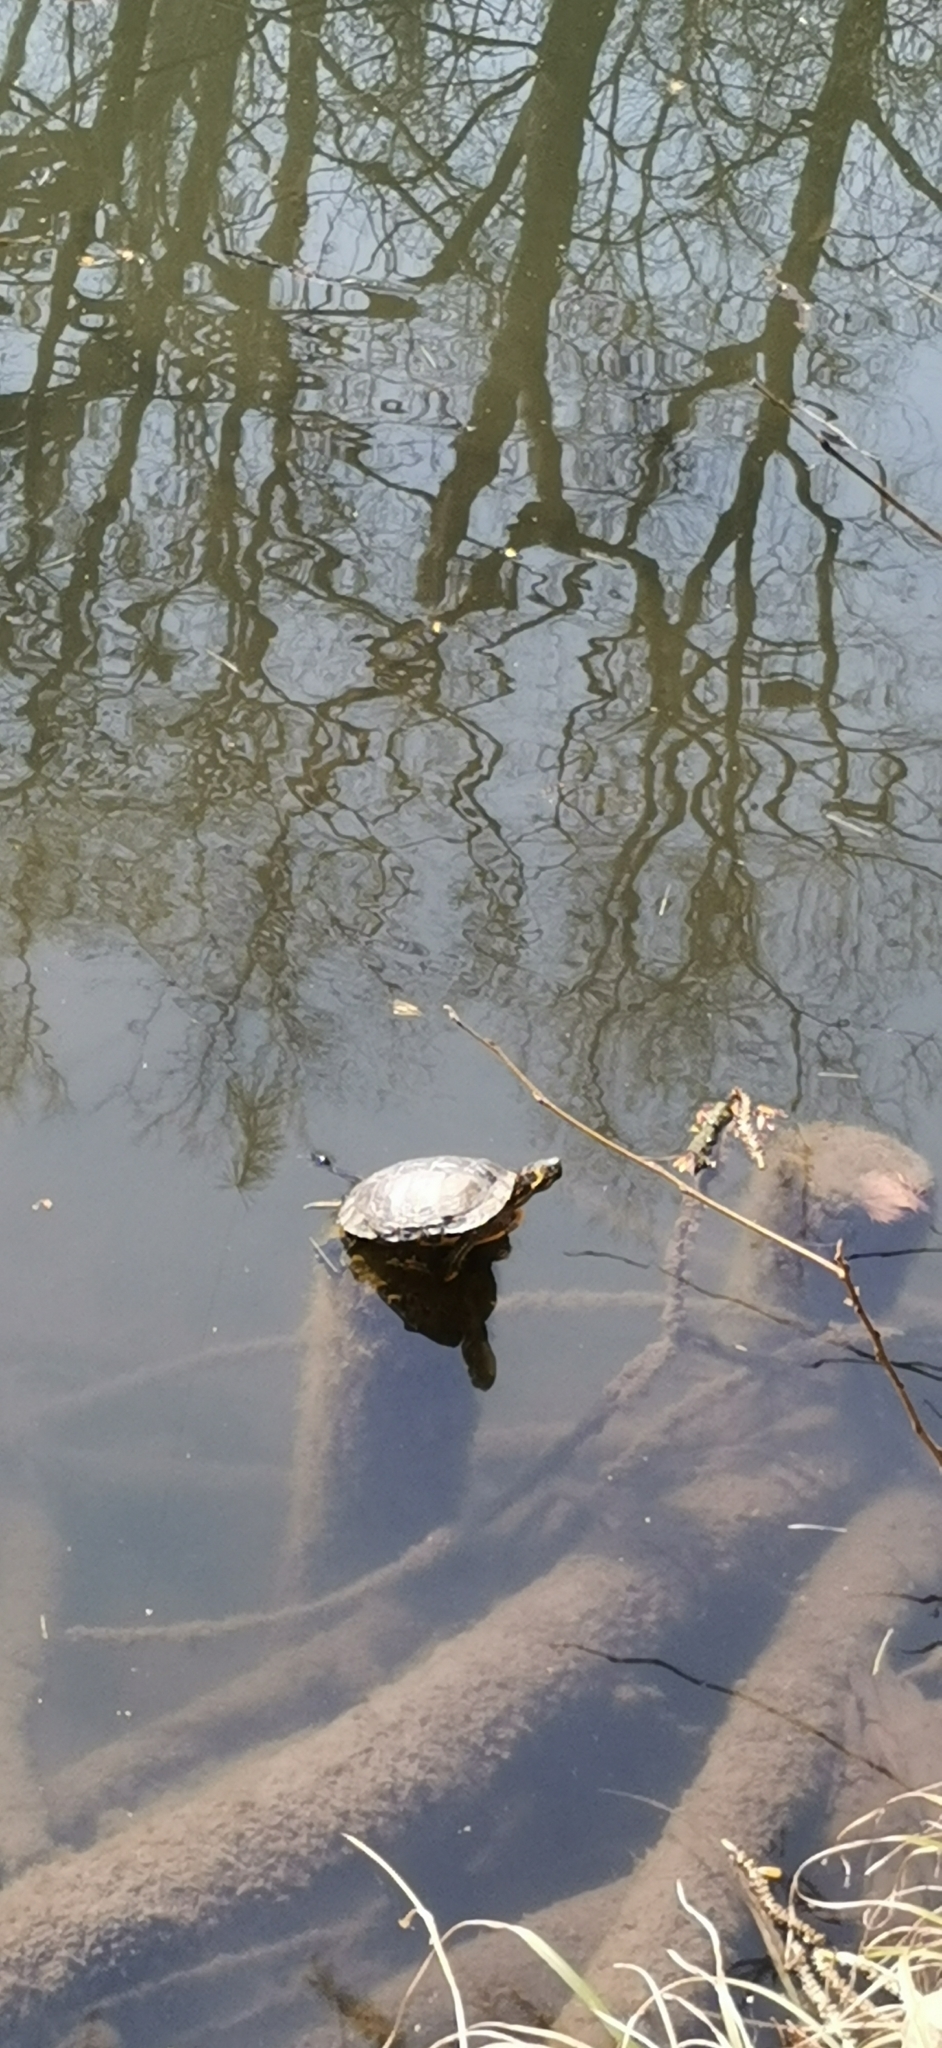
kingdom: Animalia
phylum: Chordata
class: Testudines
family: Emydidae
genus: Trachemys
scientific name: Trachemys scripta
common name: Slider
